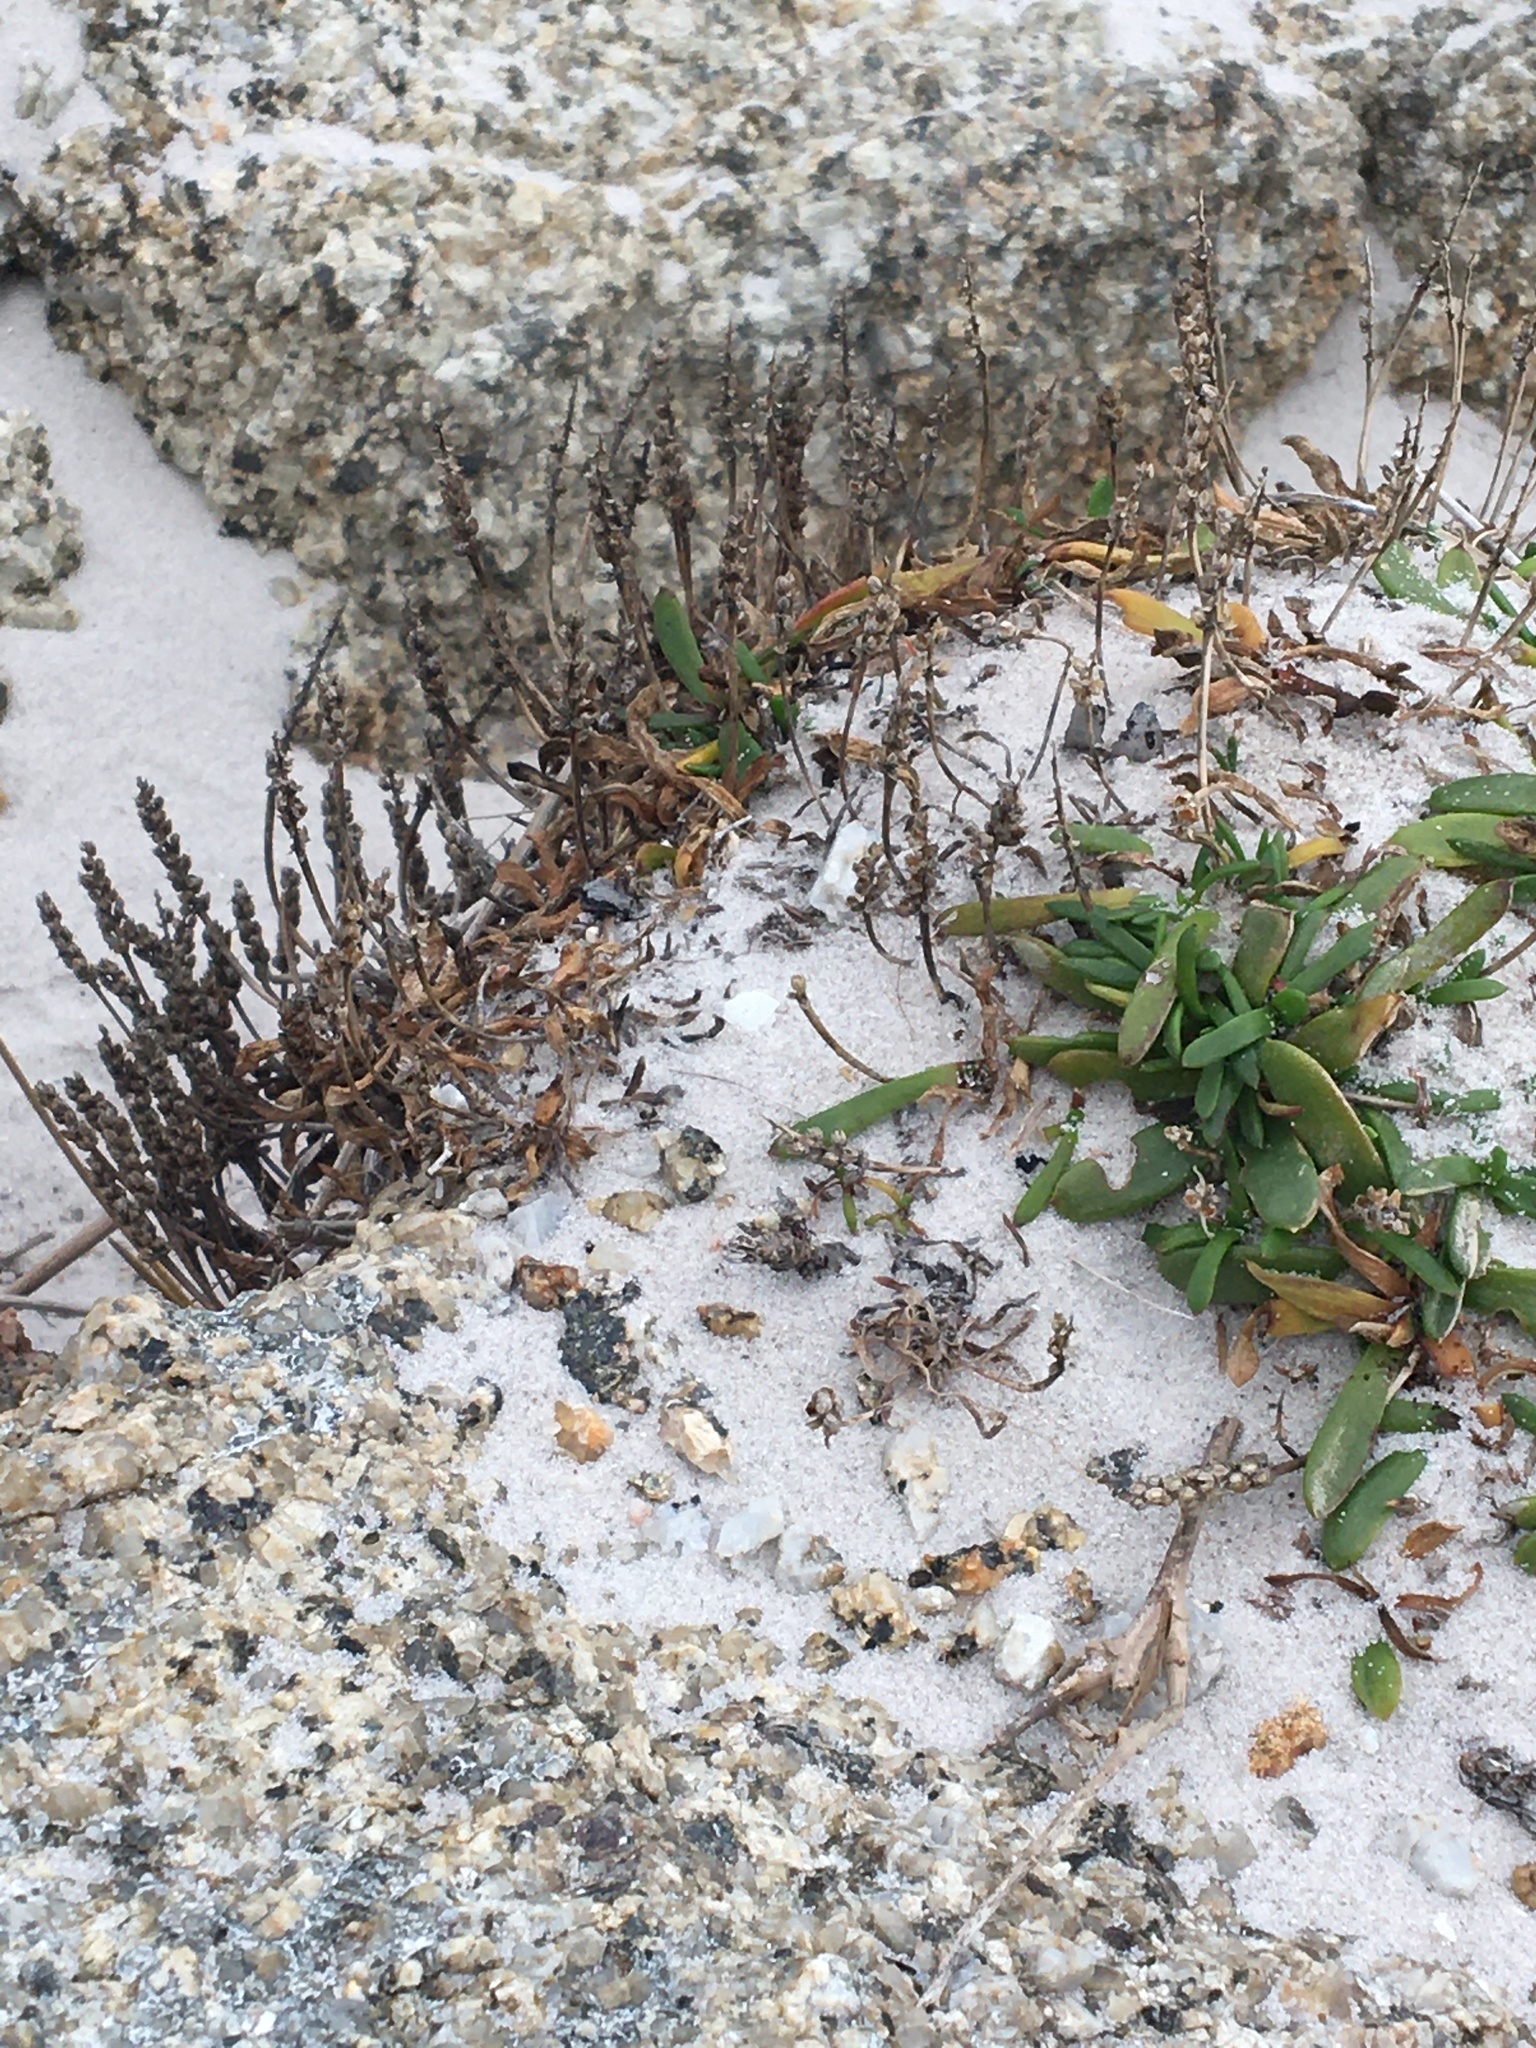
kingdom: Plantae
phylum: Tracheophyta
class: Magnoliopsida
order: Lamiales
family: Plantaginaceae
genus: Plantago
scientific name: Plantago carnosa
